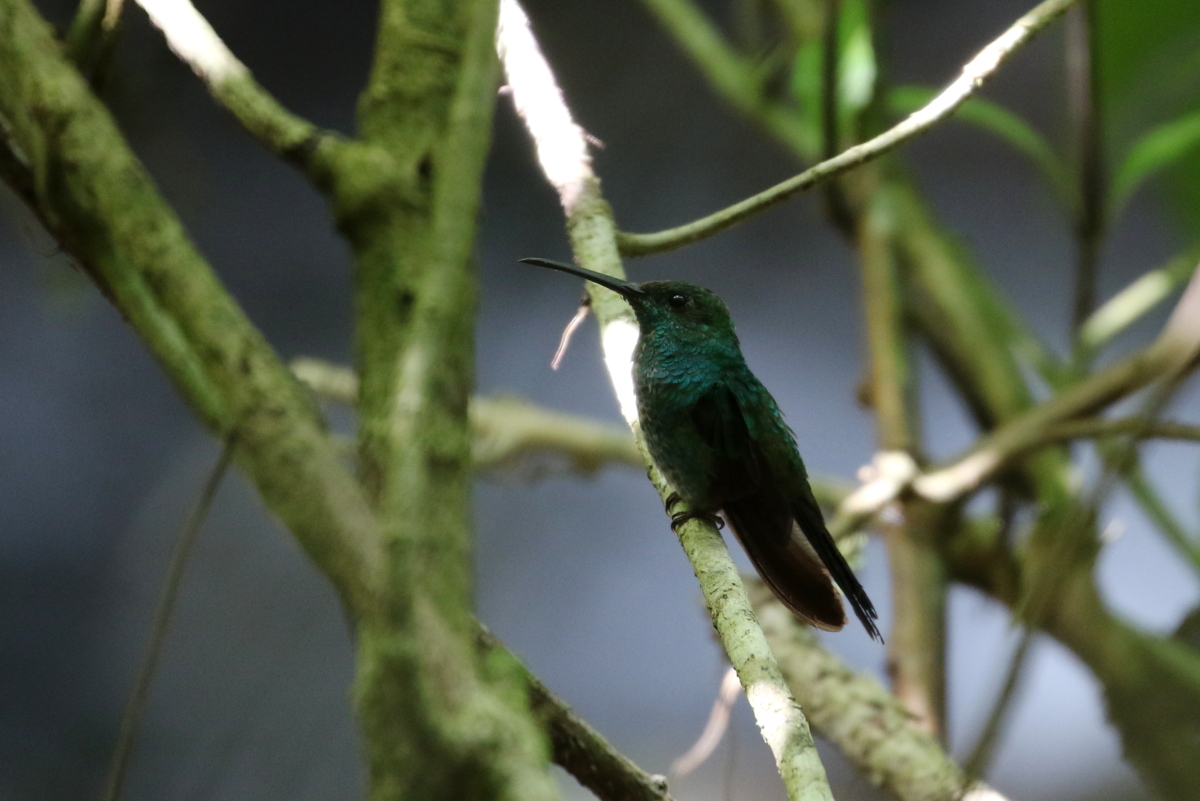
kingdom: Animalia
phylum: Chordata
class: Aves
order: Apodiformes
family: Trochilidae
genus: Chalybura
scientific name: Chalybura buffonii
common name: White-vented plumeleteer
